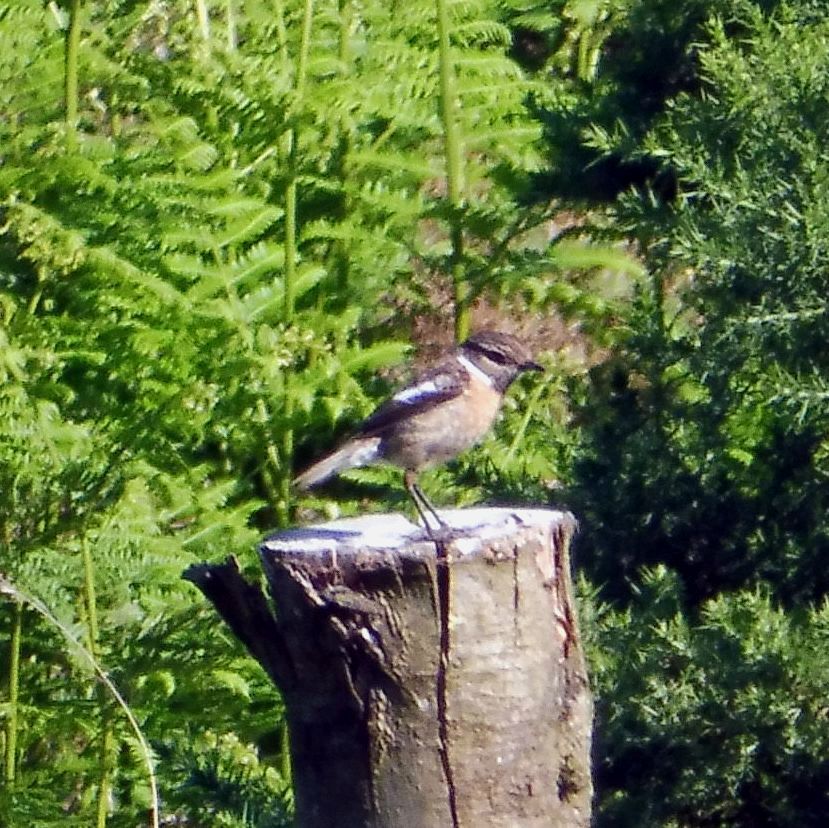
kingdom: Animalia
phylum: Chordata
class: Aves
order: Passeriformes
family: Muscicapidae
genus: Saxicola
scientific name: Saxicola rubicola
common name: European stonechat
